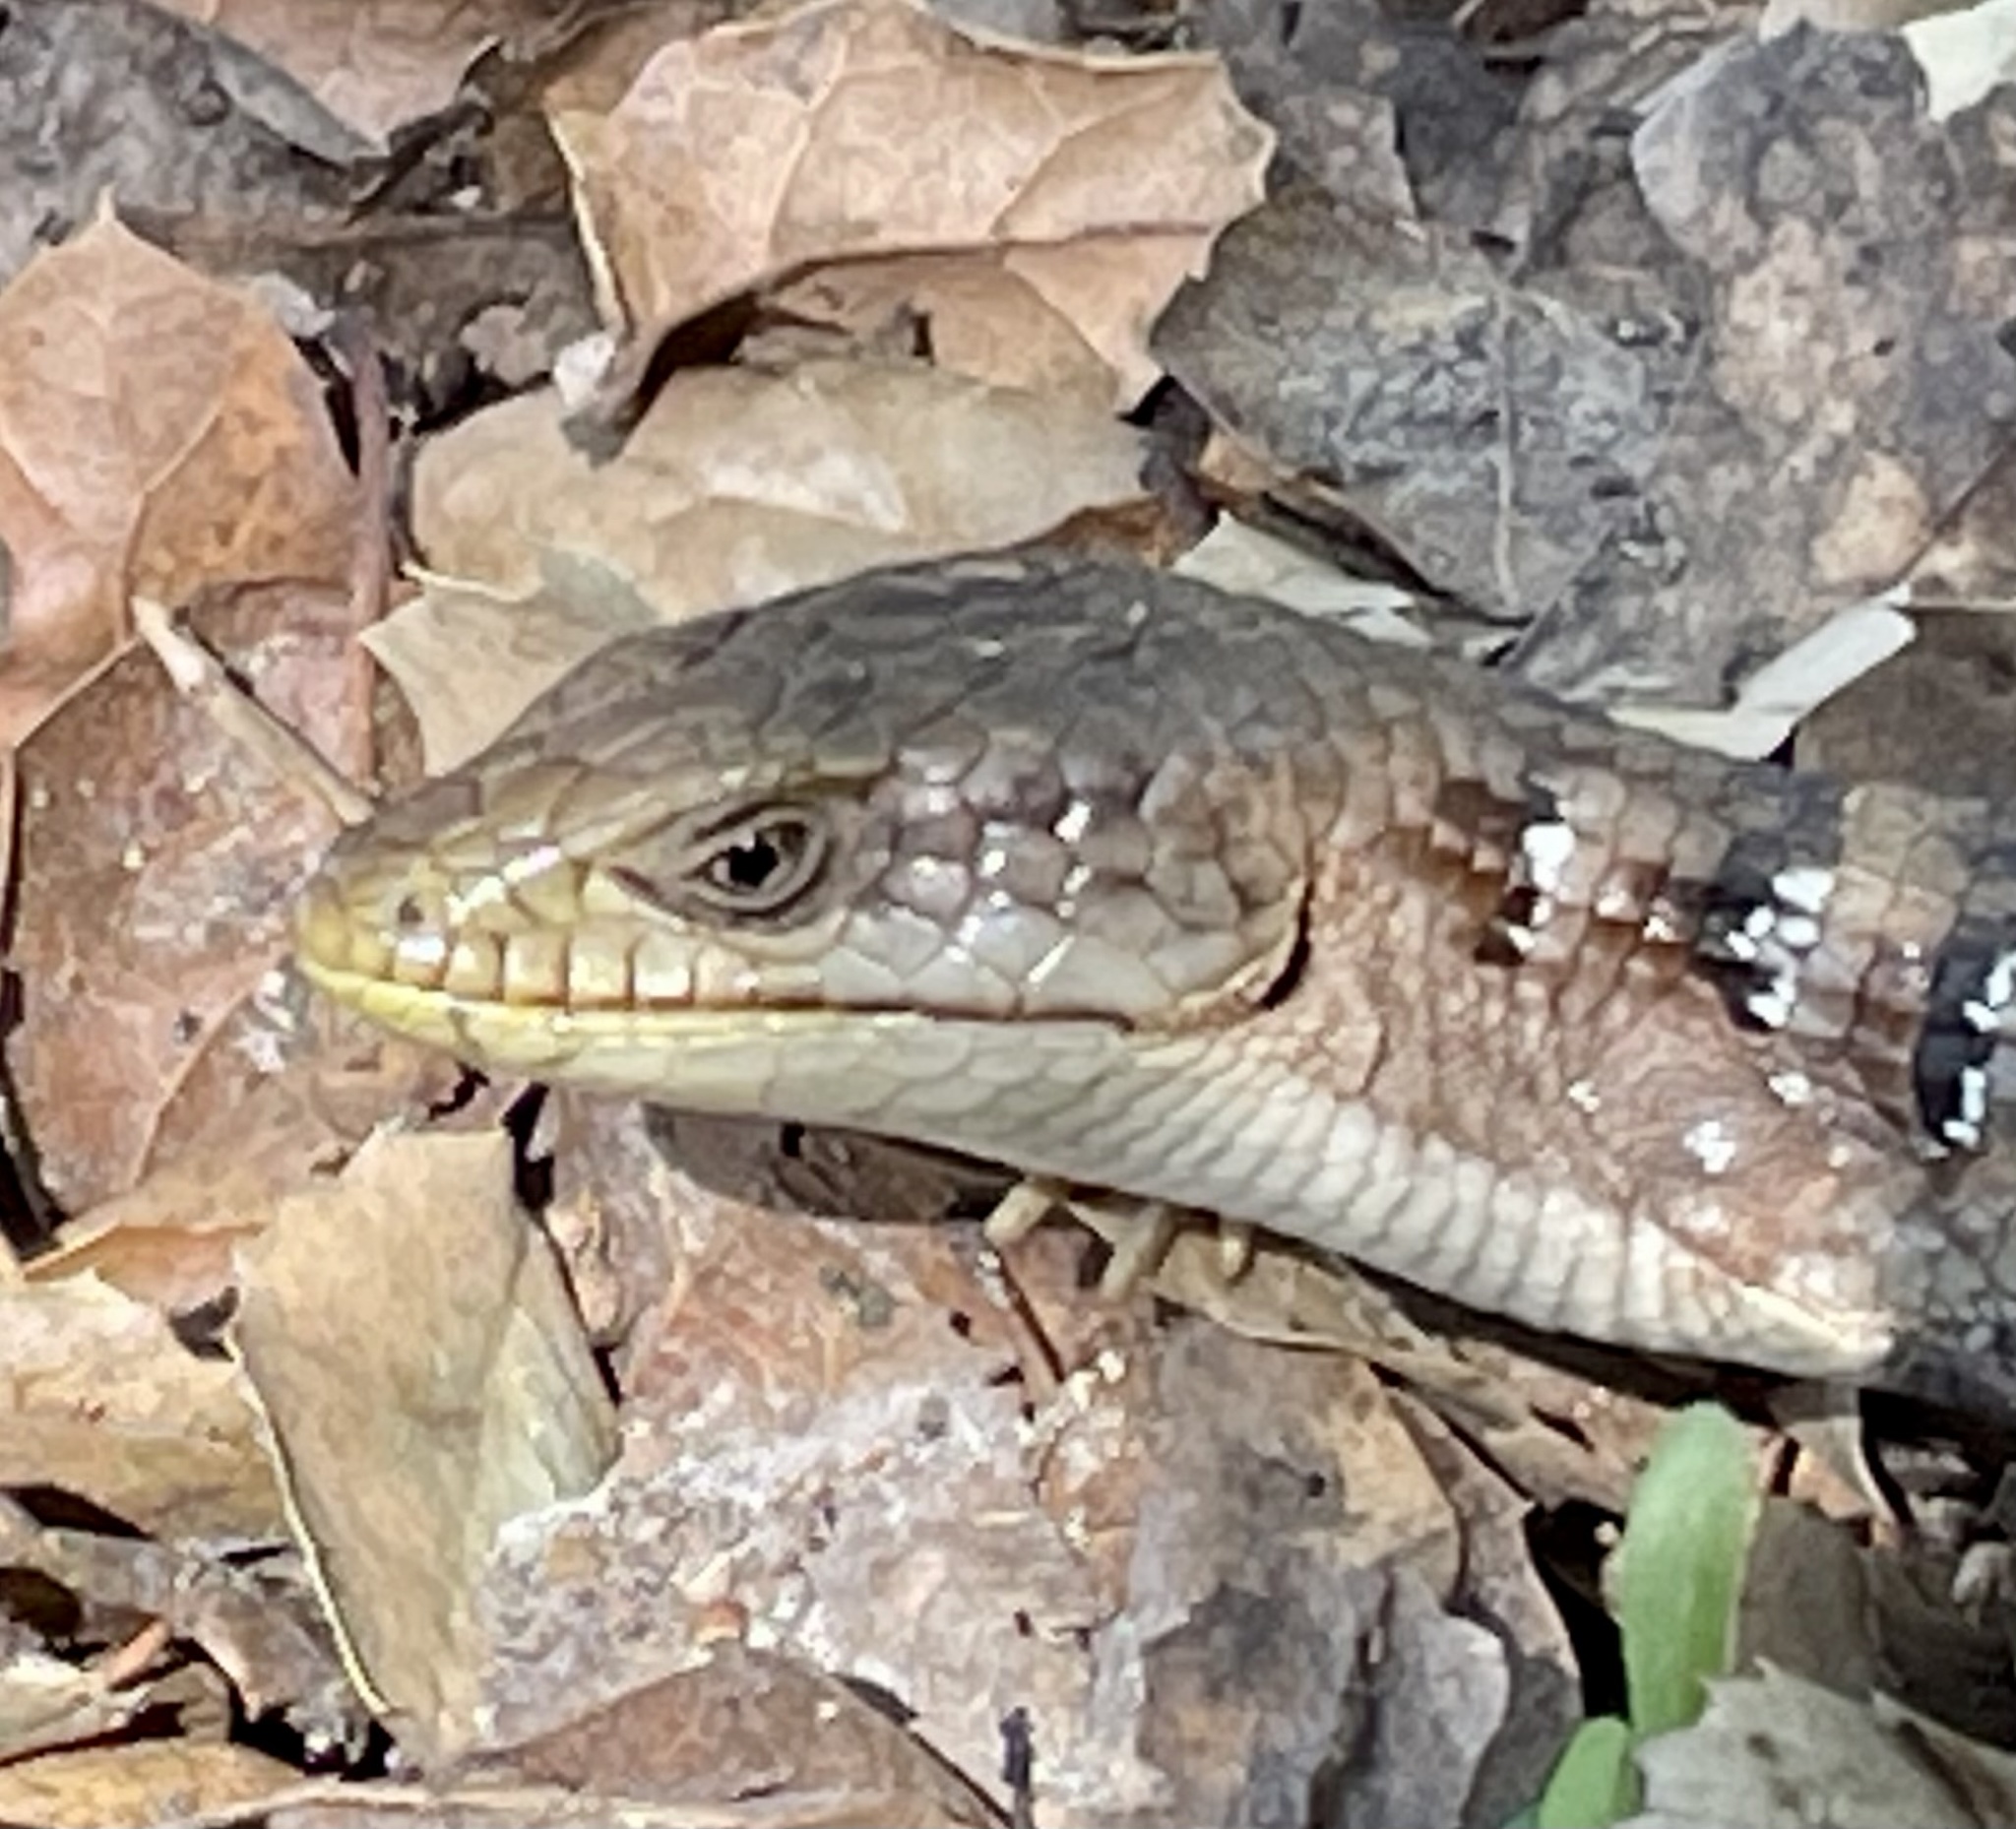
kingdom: Animalia
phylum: Chordata
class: Squamata
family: Anguidae
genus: Elgaria
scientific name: Elgaria multicarinata
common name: Southern alligator lizard
